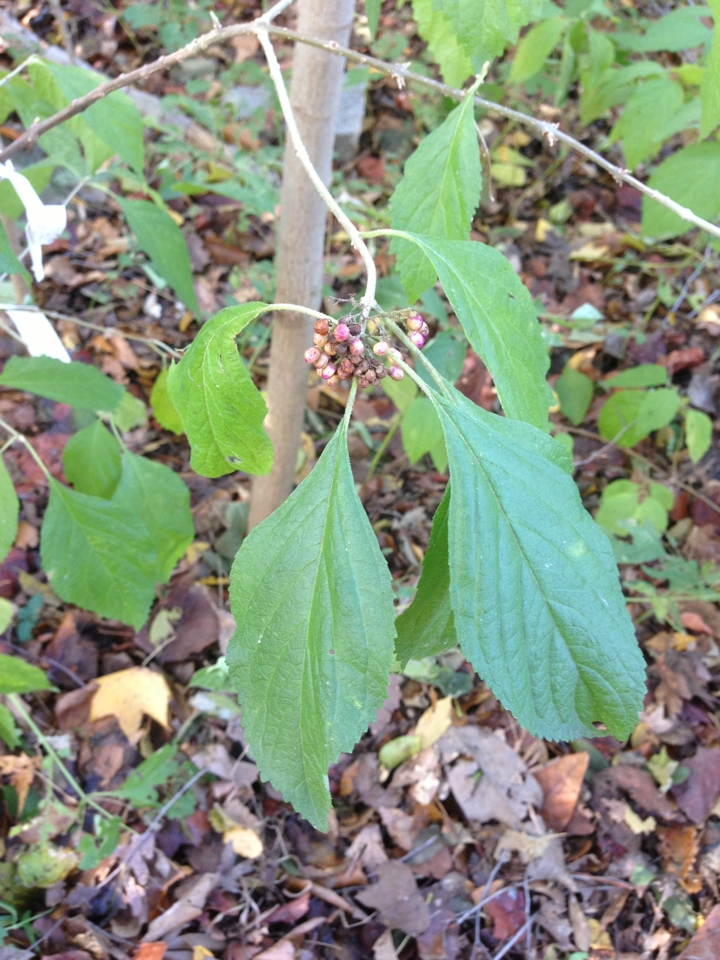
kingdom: Plantae
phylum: Tracheophyta
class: Magnoliopsida
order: Lamiales
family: Lamiaceae
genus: Callicarpa
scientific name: Callicarpa americana
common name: American beautyberry
